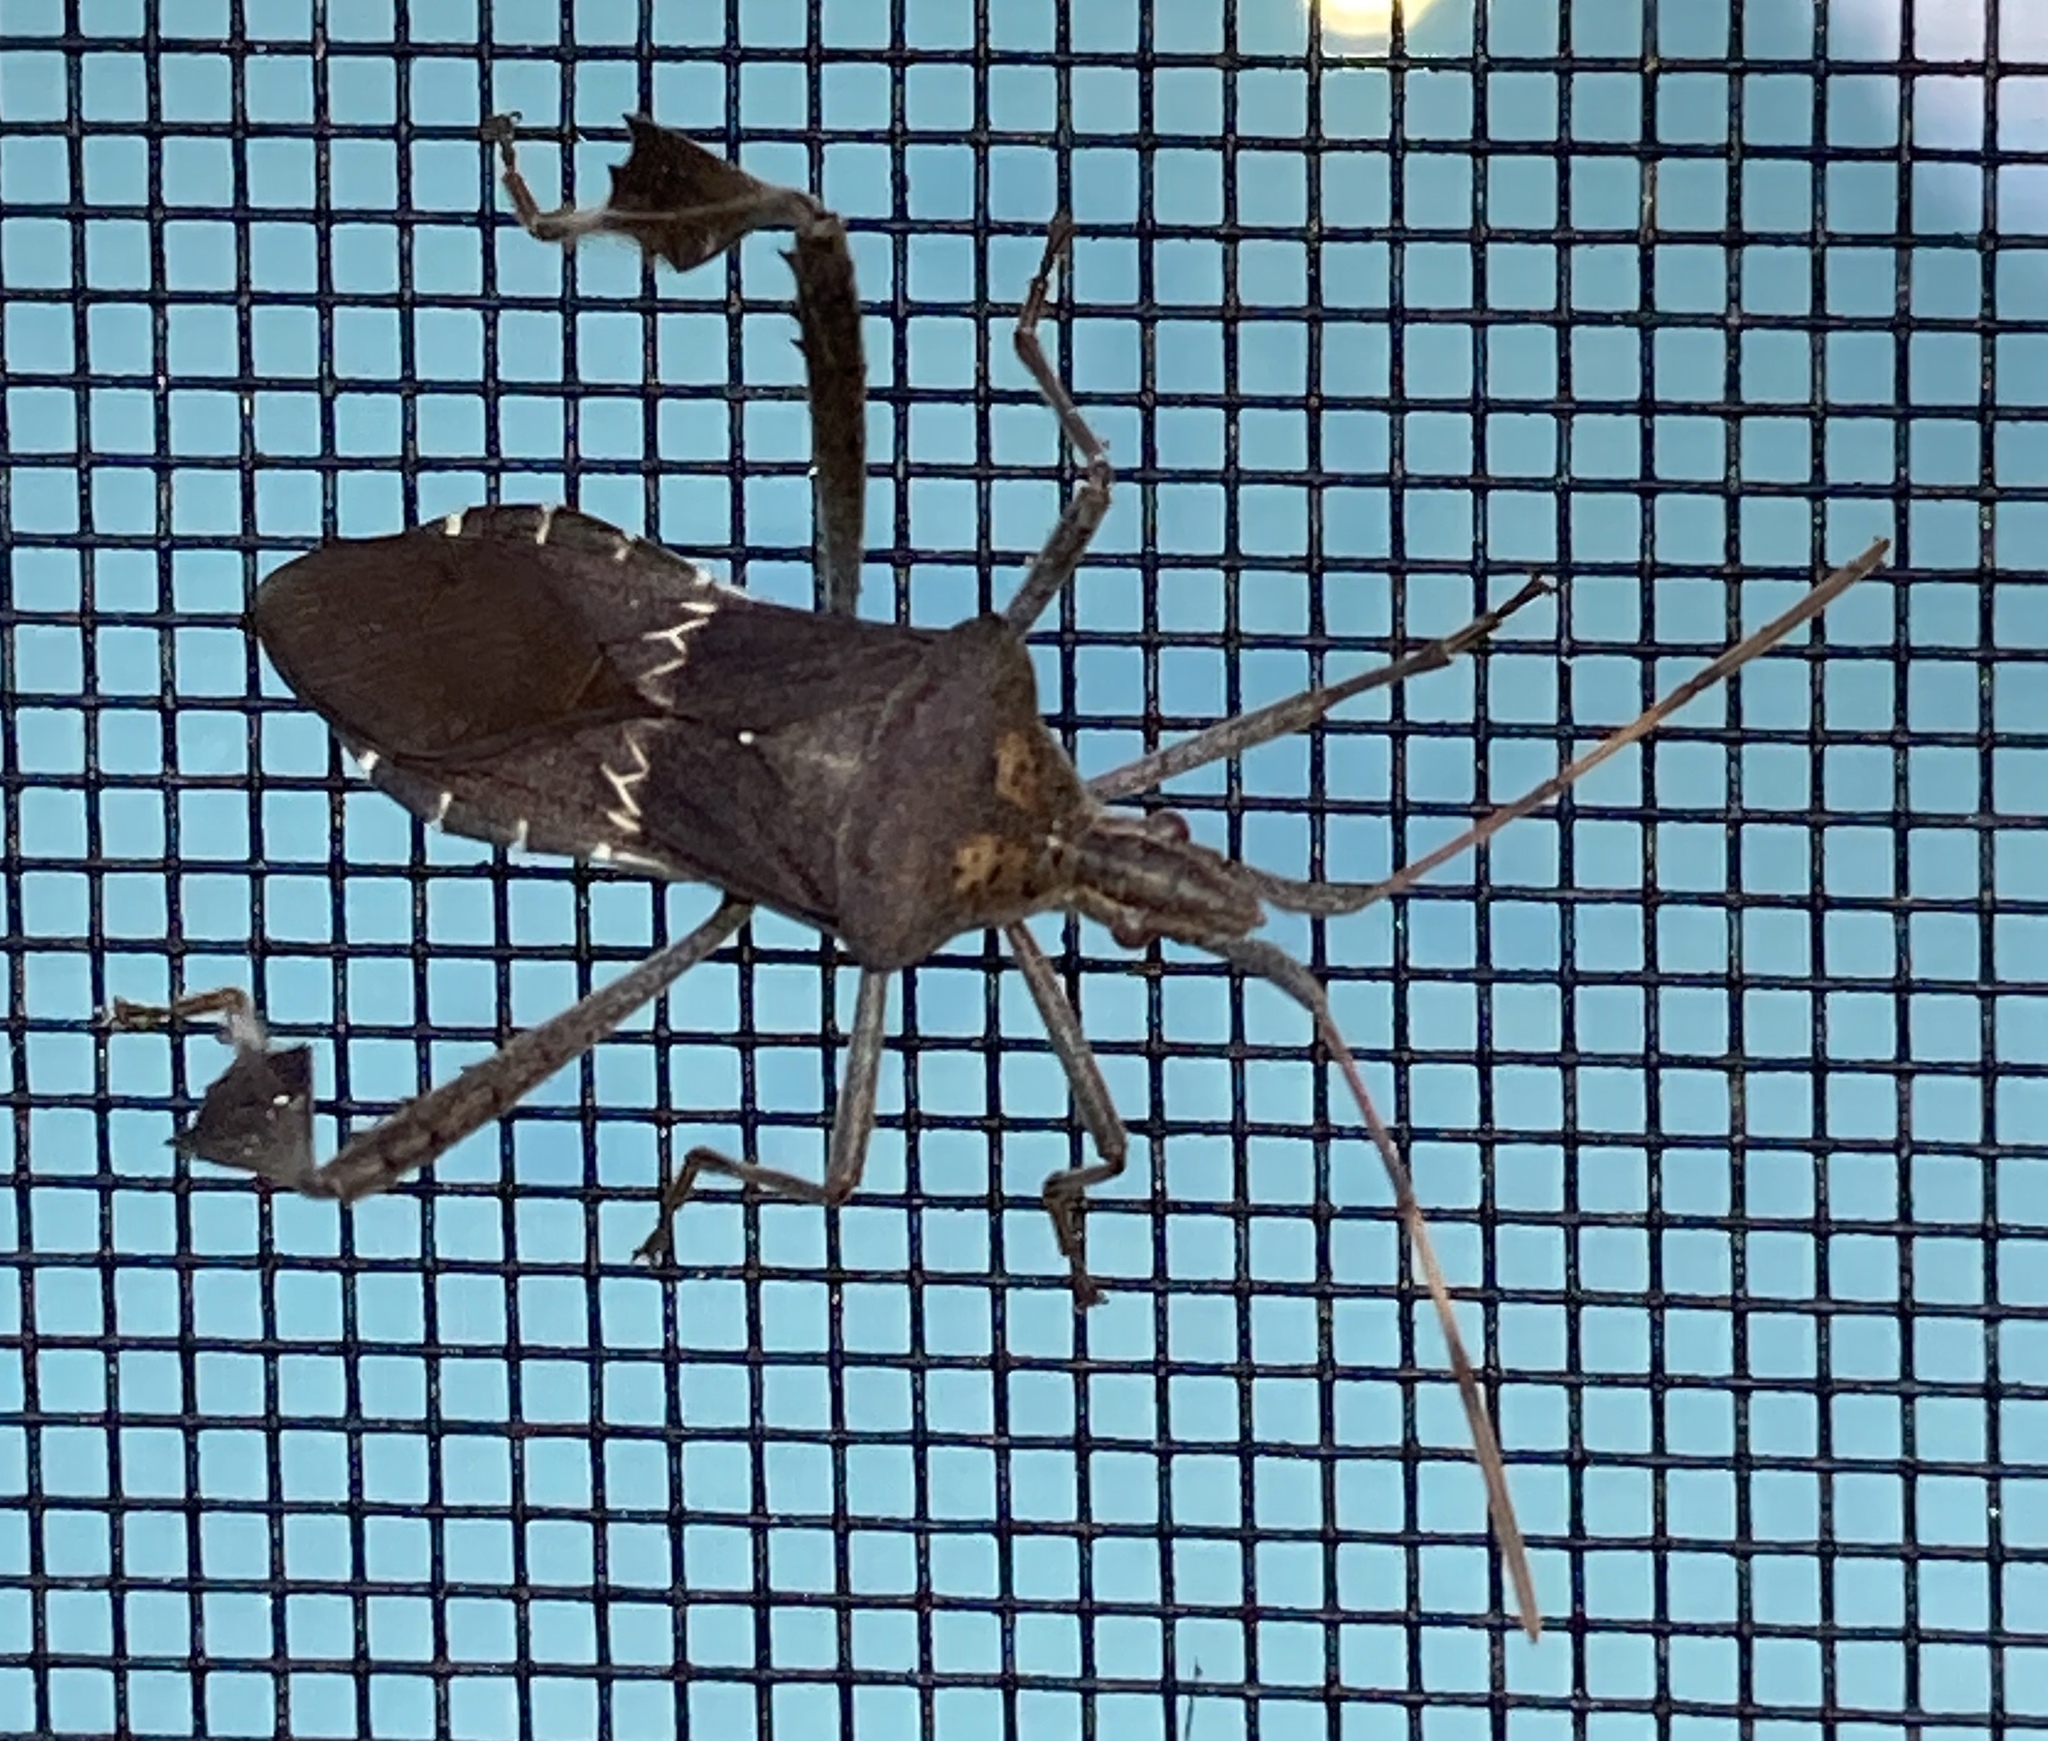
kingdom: Animalia
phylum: Arthropoda
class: Insecta
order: Hemiptera
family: Coreidae
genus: Leptoglossus
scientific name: Leptoglossus zonatus
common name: Large-legged bug
